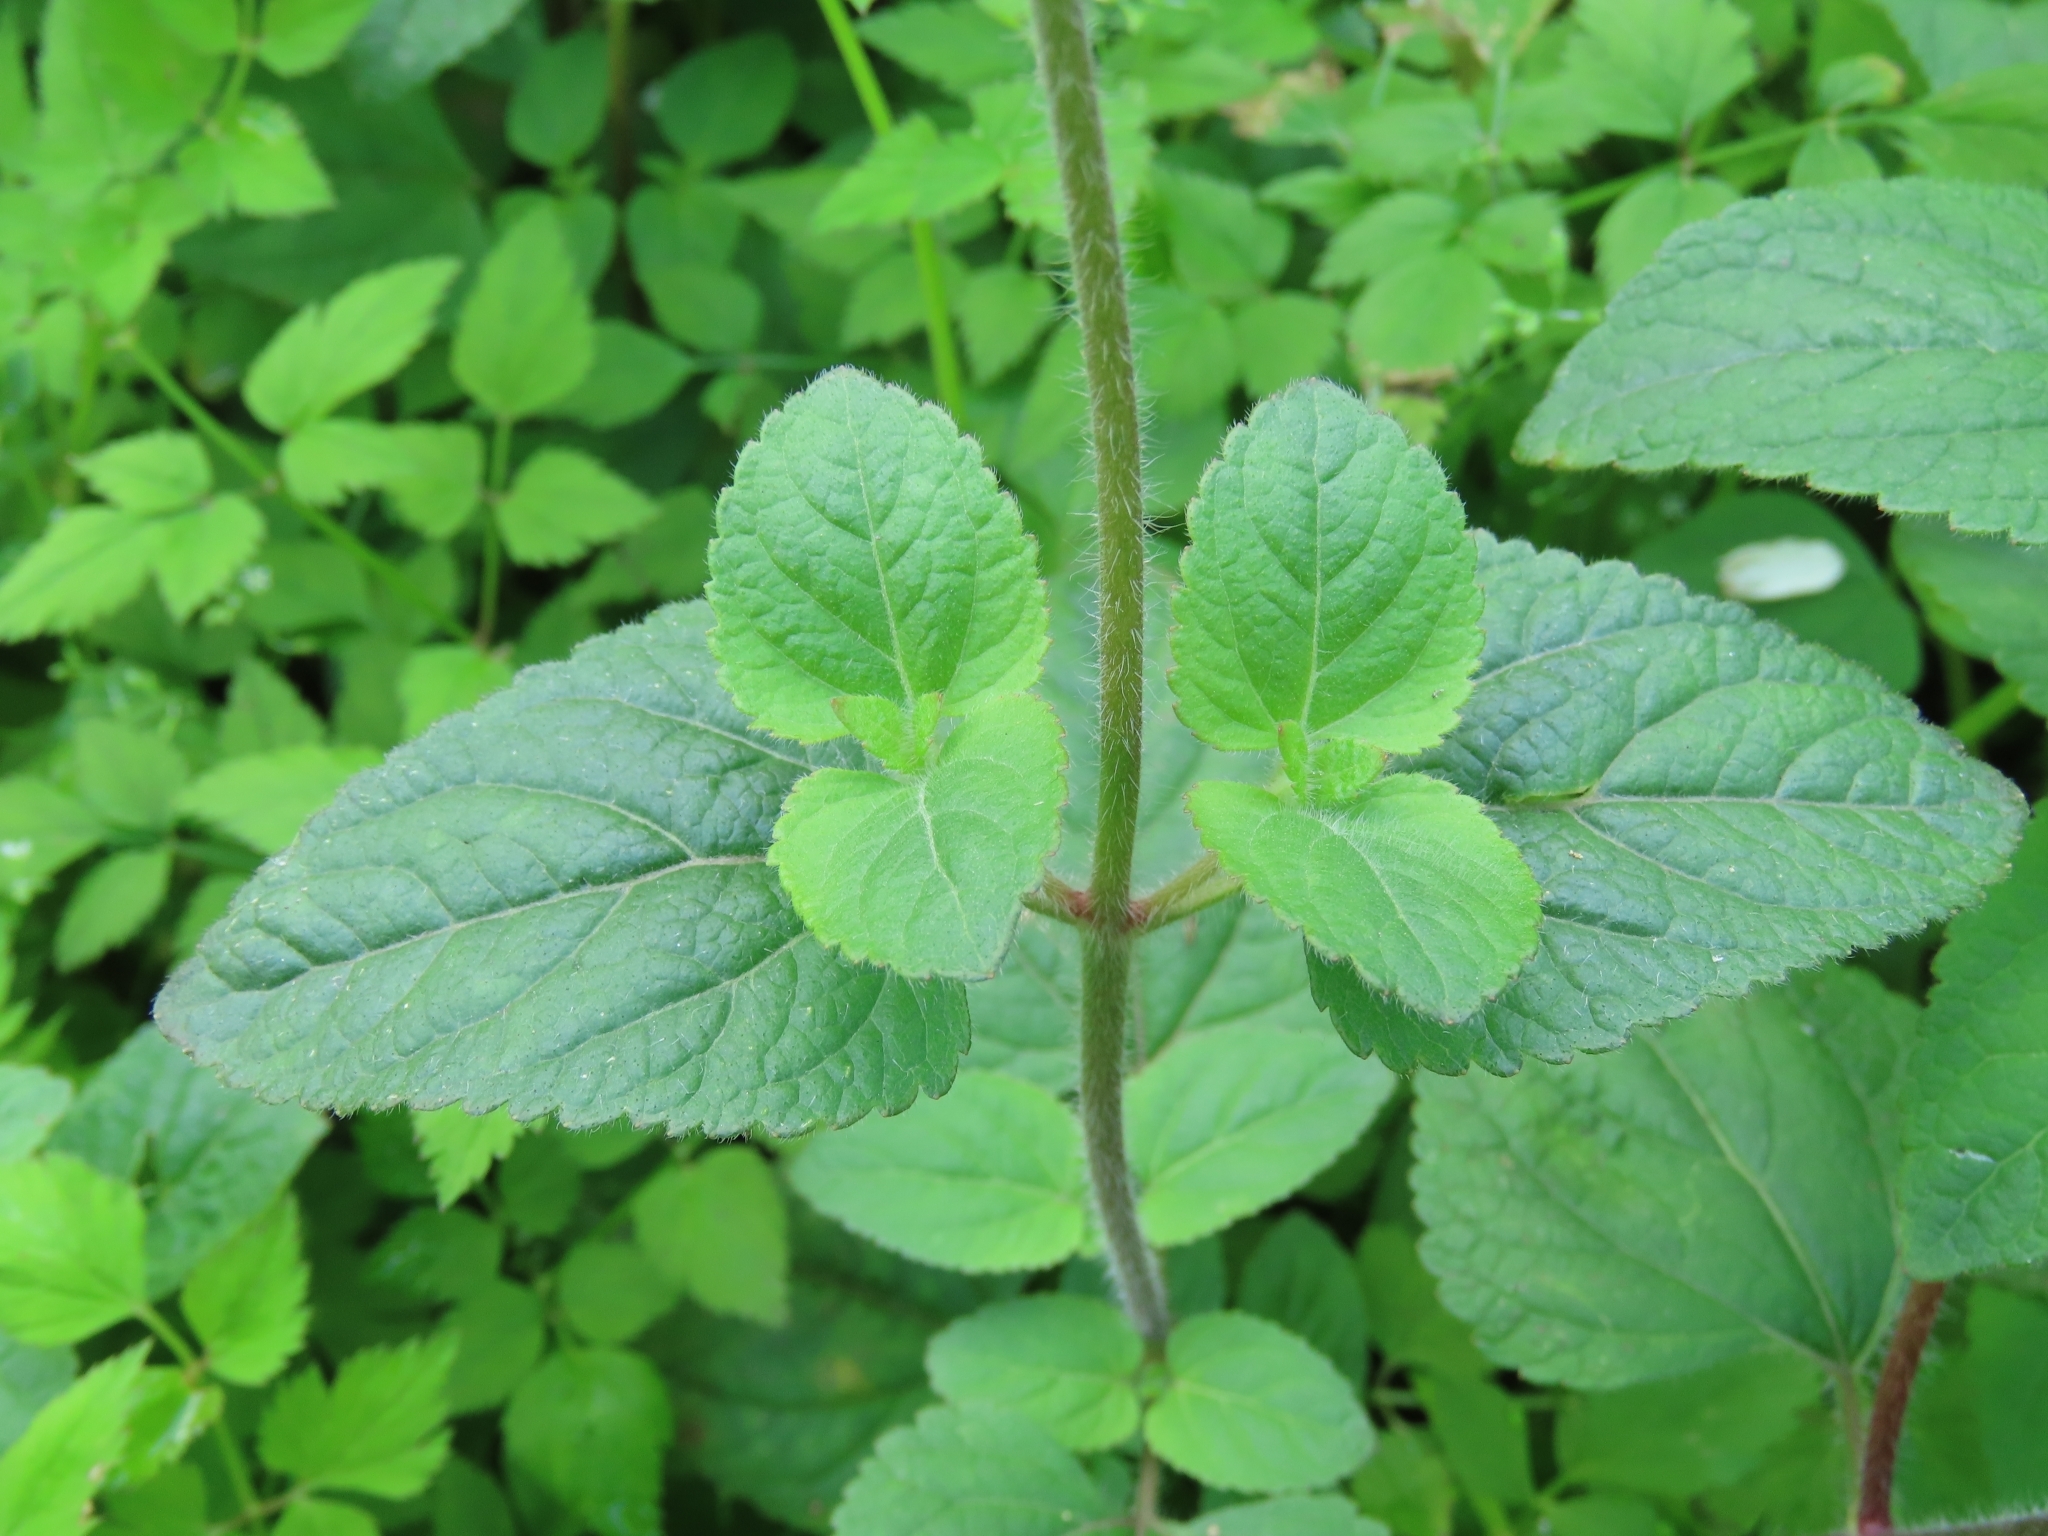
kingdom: Plantae
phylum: Tracheophyta
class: Magnoliopsida
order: Asterales
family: Asteraceae
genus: Ageratum
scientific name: Ageratum houstonianum
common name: Bluemink
